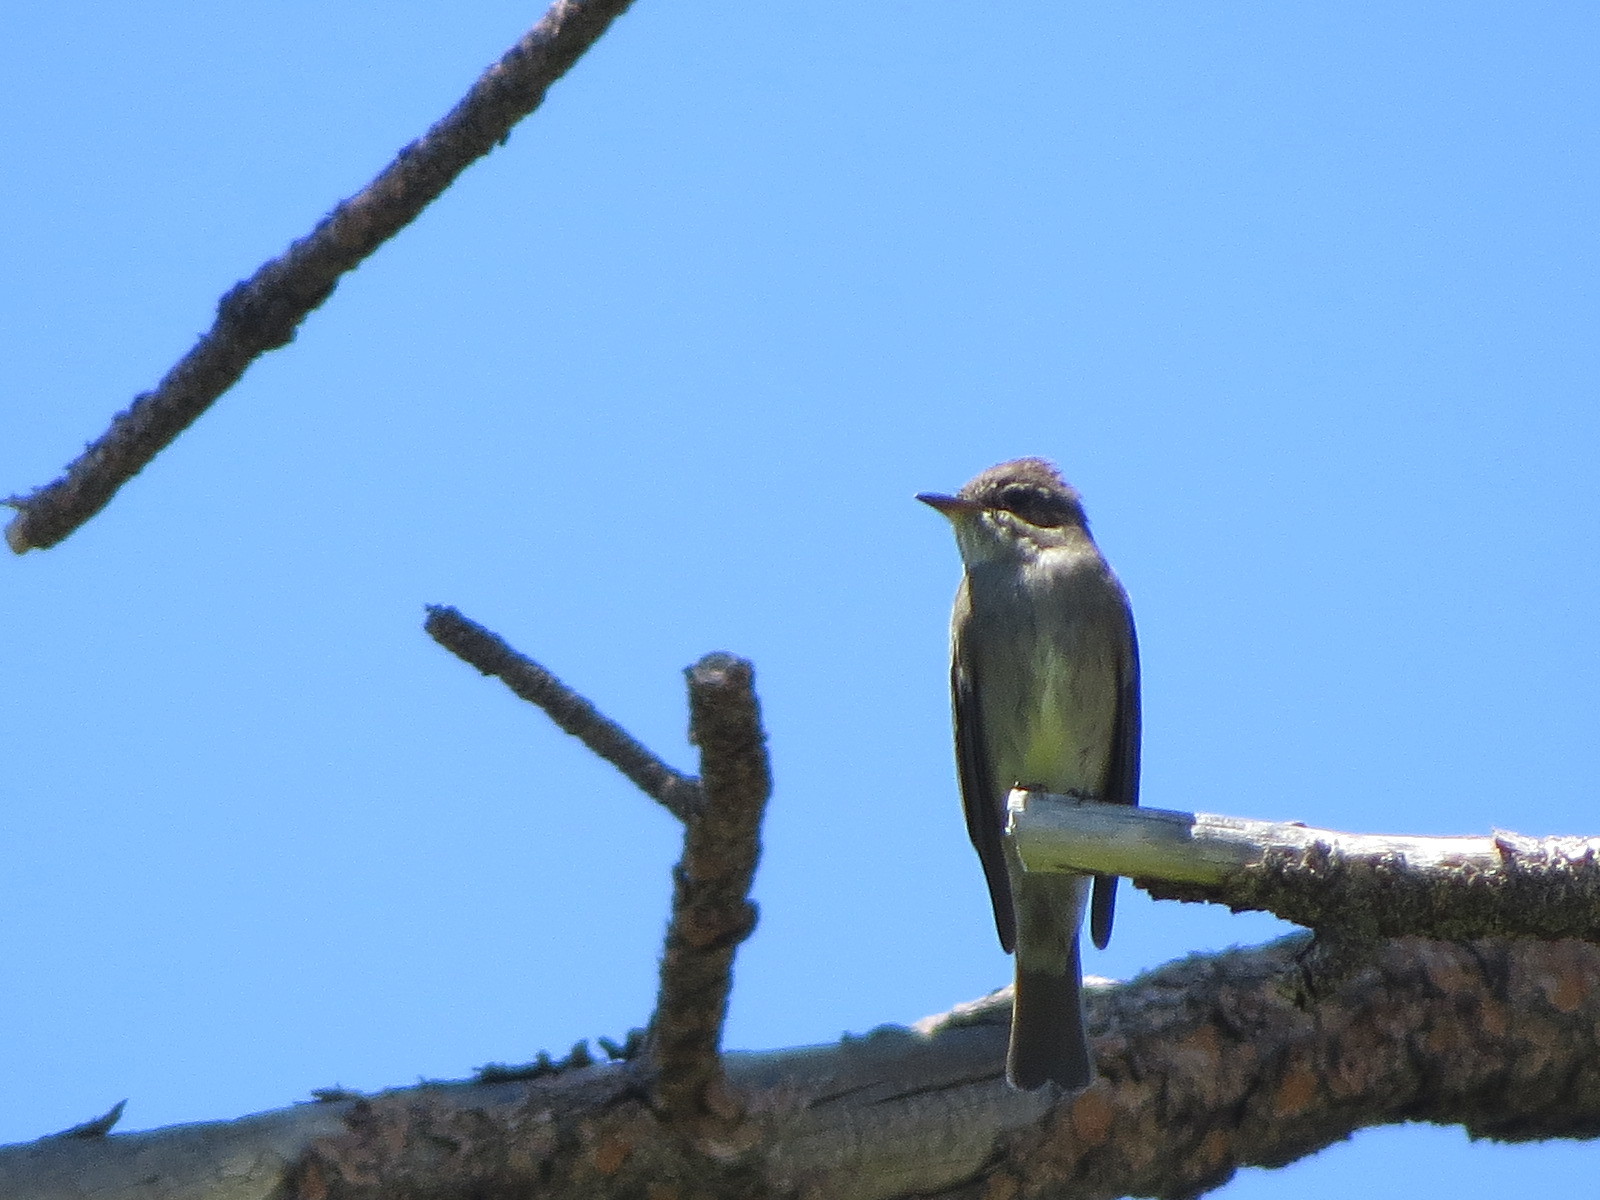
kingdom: Animalia
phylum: Chordata
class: Aves
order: Passeriformes
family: Tyrannidae
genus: Contopus
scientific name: Contopus sordidulus
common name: Western wood-pewee
